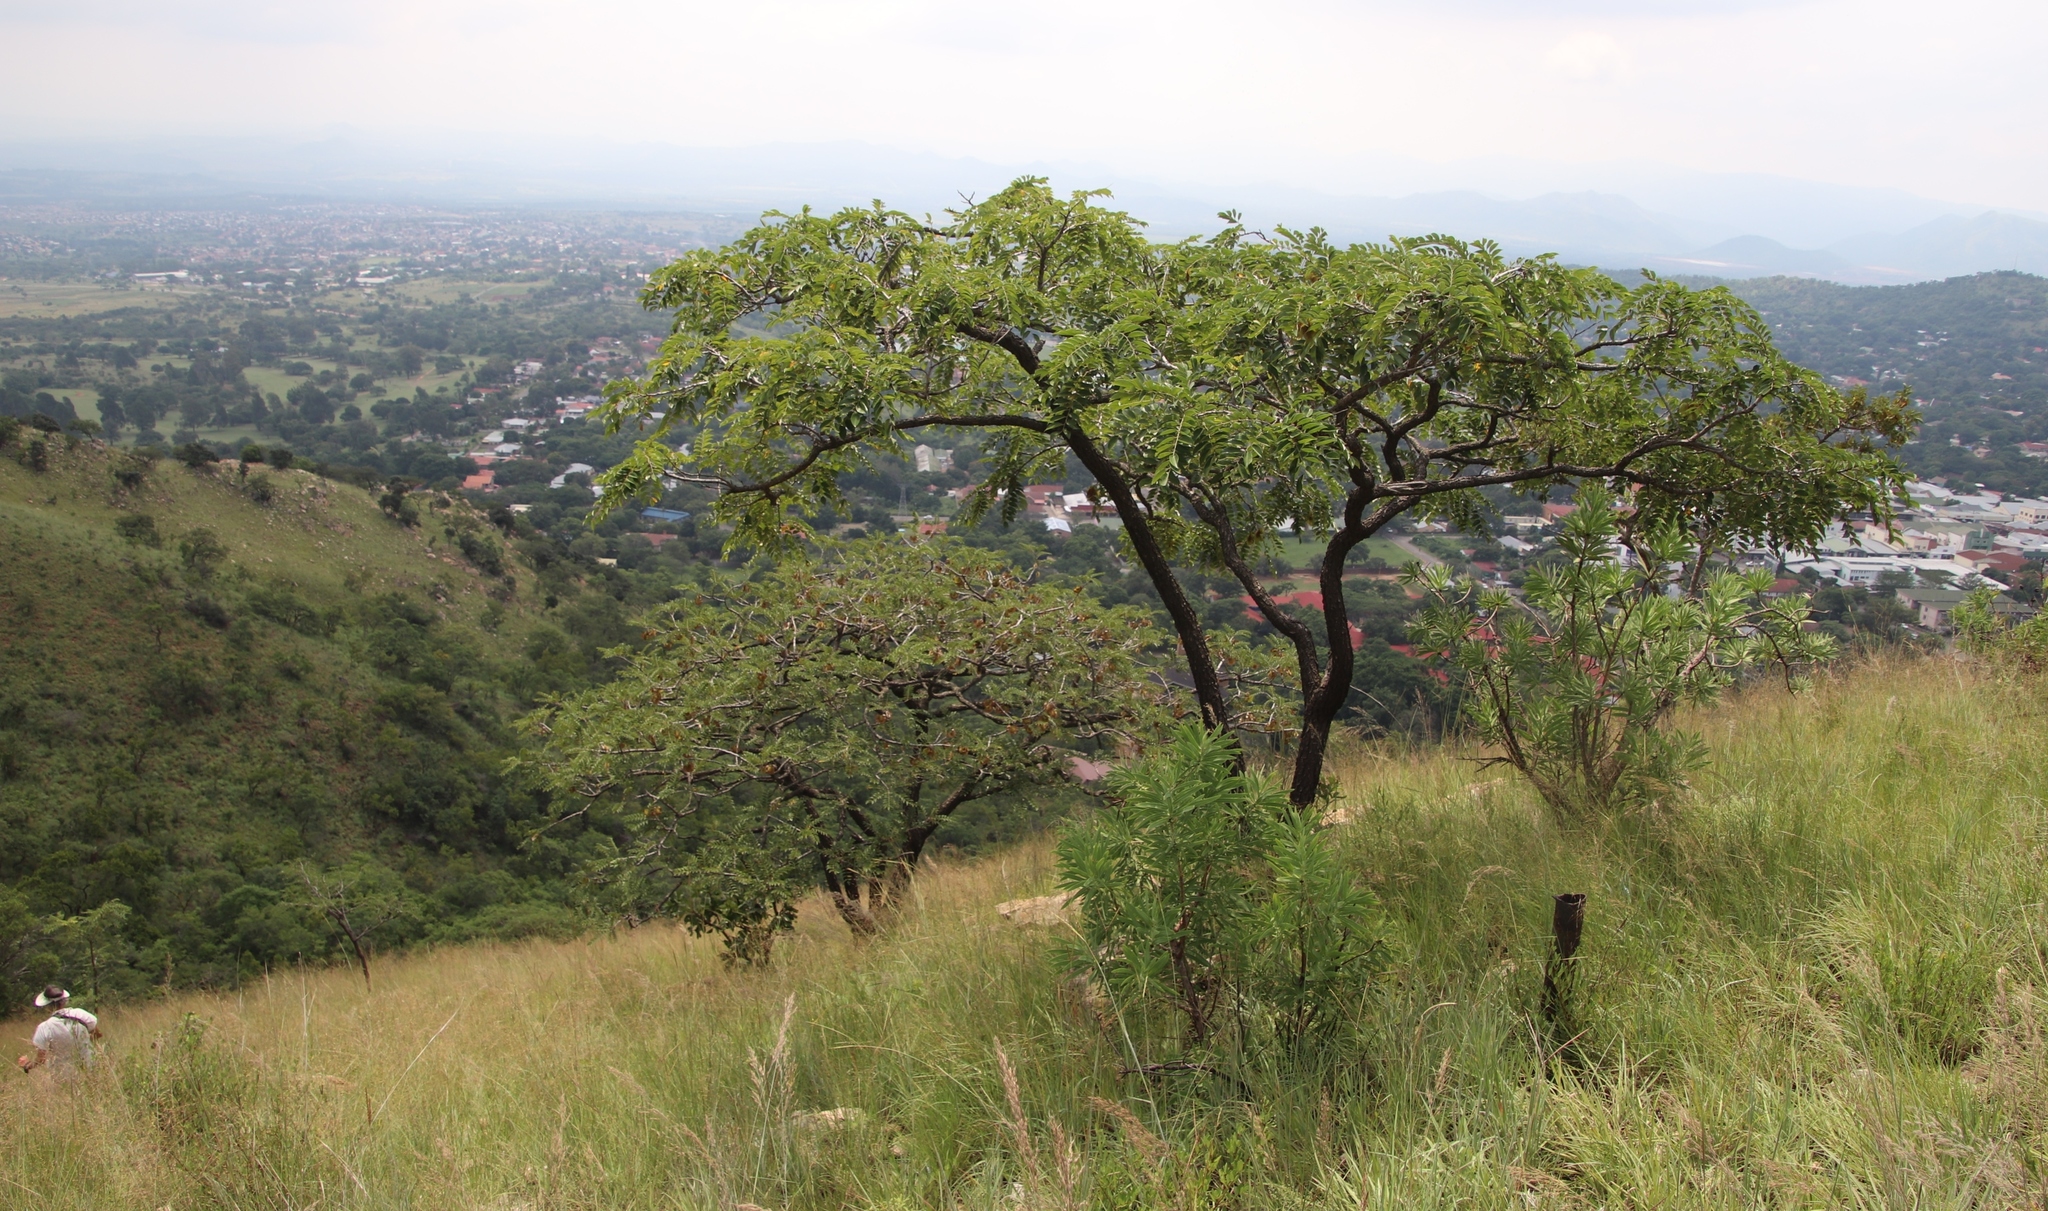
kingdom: Plantae
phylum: Tracheophyta
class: Magnoliopsida
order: Fabales
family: Fabaceae
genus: Pterocarpus
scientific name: Pterocarpus angolensis
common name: Bloodwood tree
